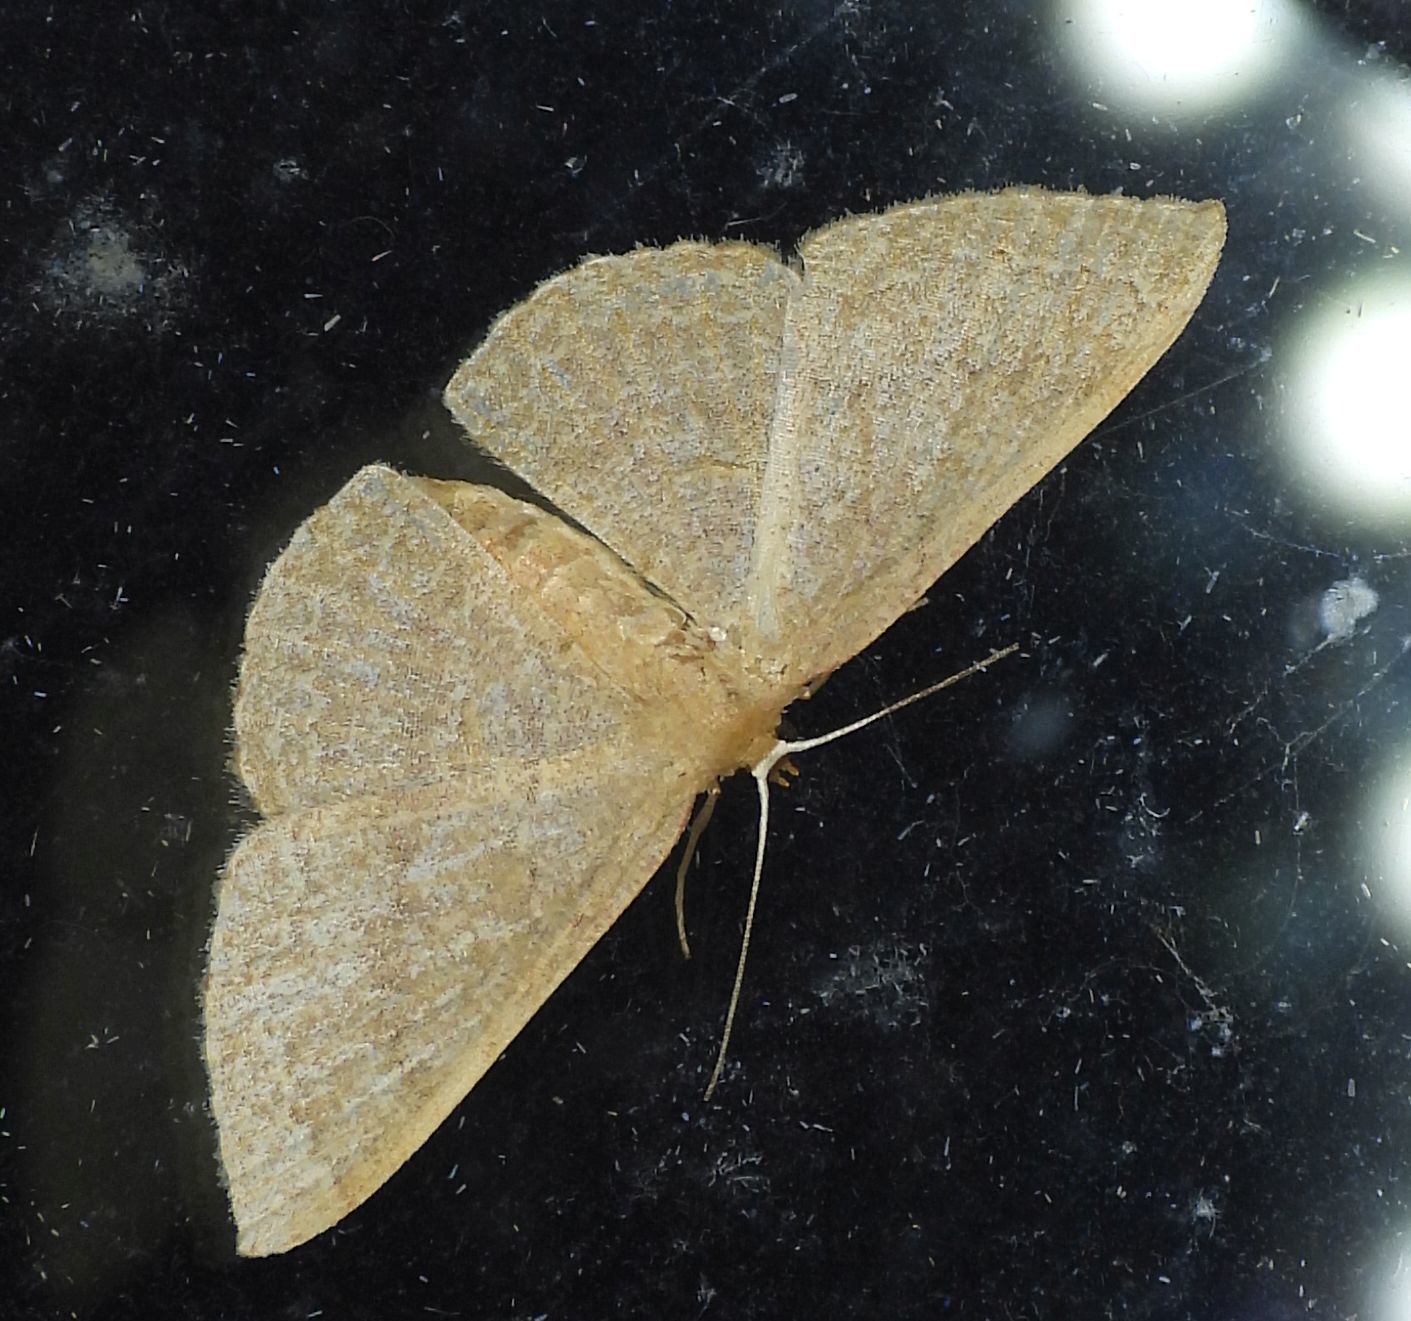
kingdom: Animalia
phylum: Arthropoda
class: Insecta
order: Lepidoptera
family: Geometridae
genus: Pleuroprucha
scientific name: Pleuroprucha insulsaria
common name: Common tan wave
